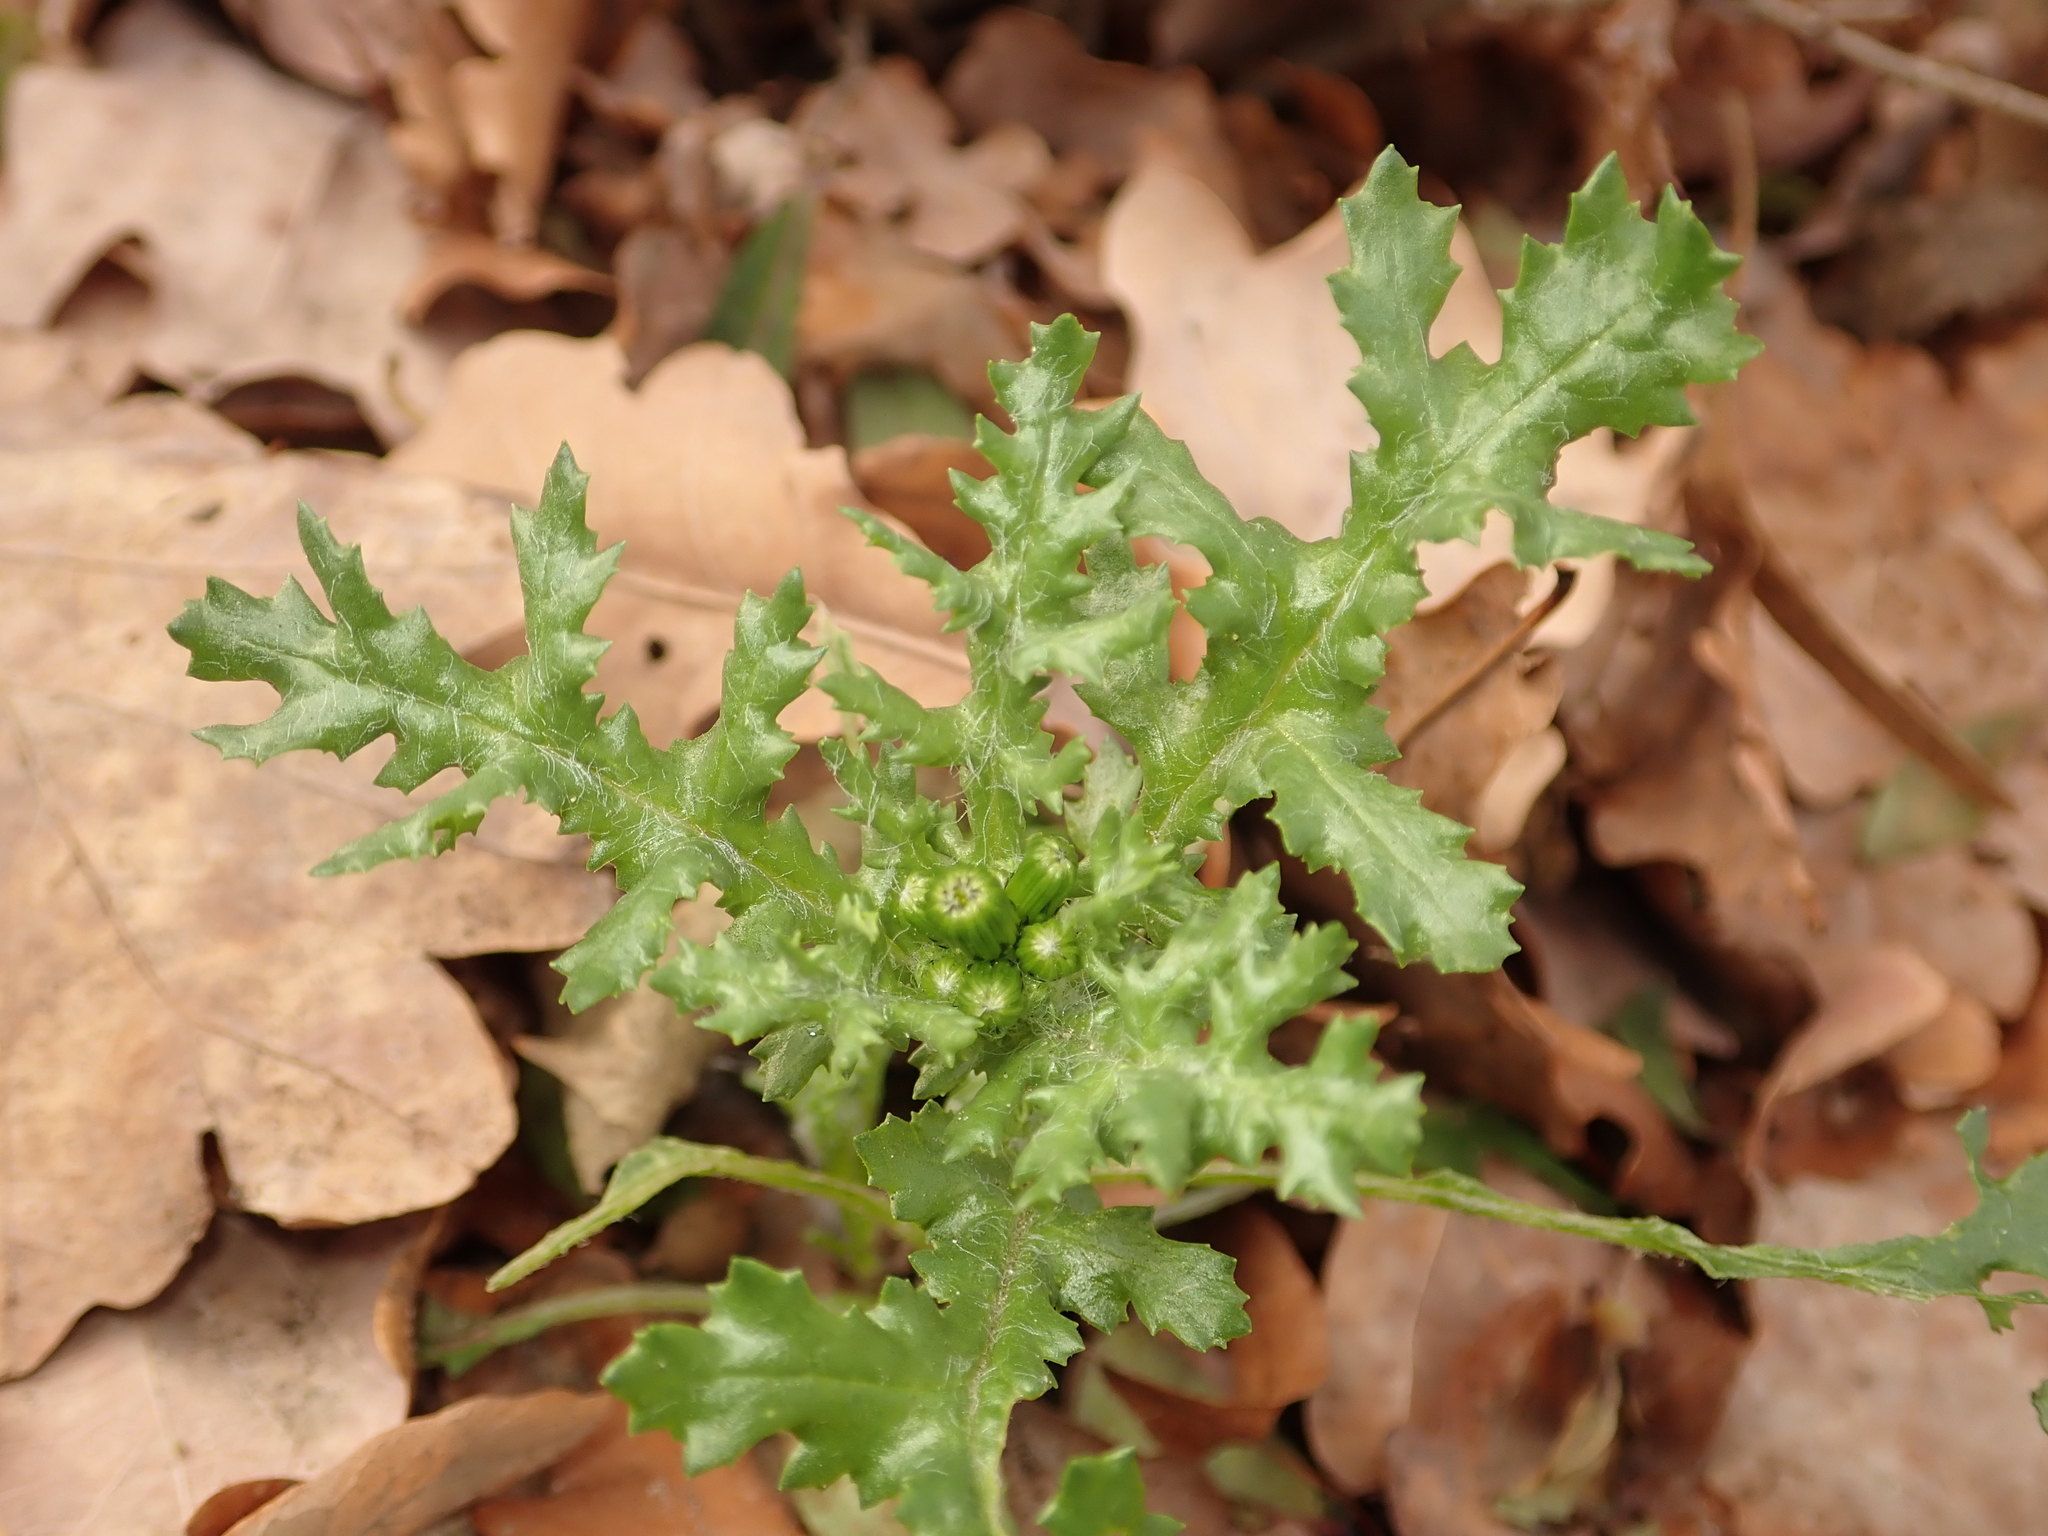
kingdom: Plantae
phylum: Tracheophyta
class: Magnoliopsida
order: Asterales
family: Asteraceae
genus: Senecio
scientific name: Senecio vulgaris
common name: Old-man-in-the-spring
